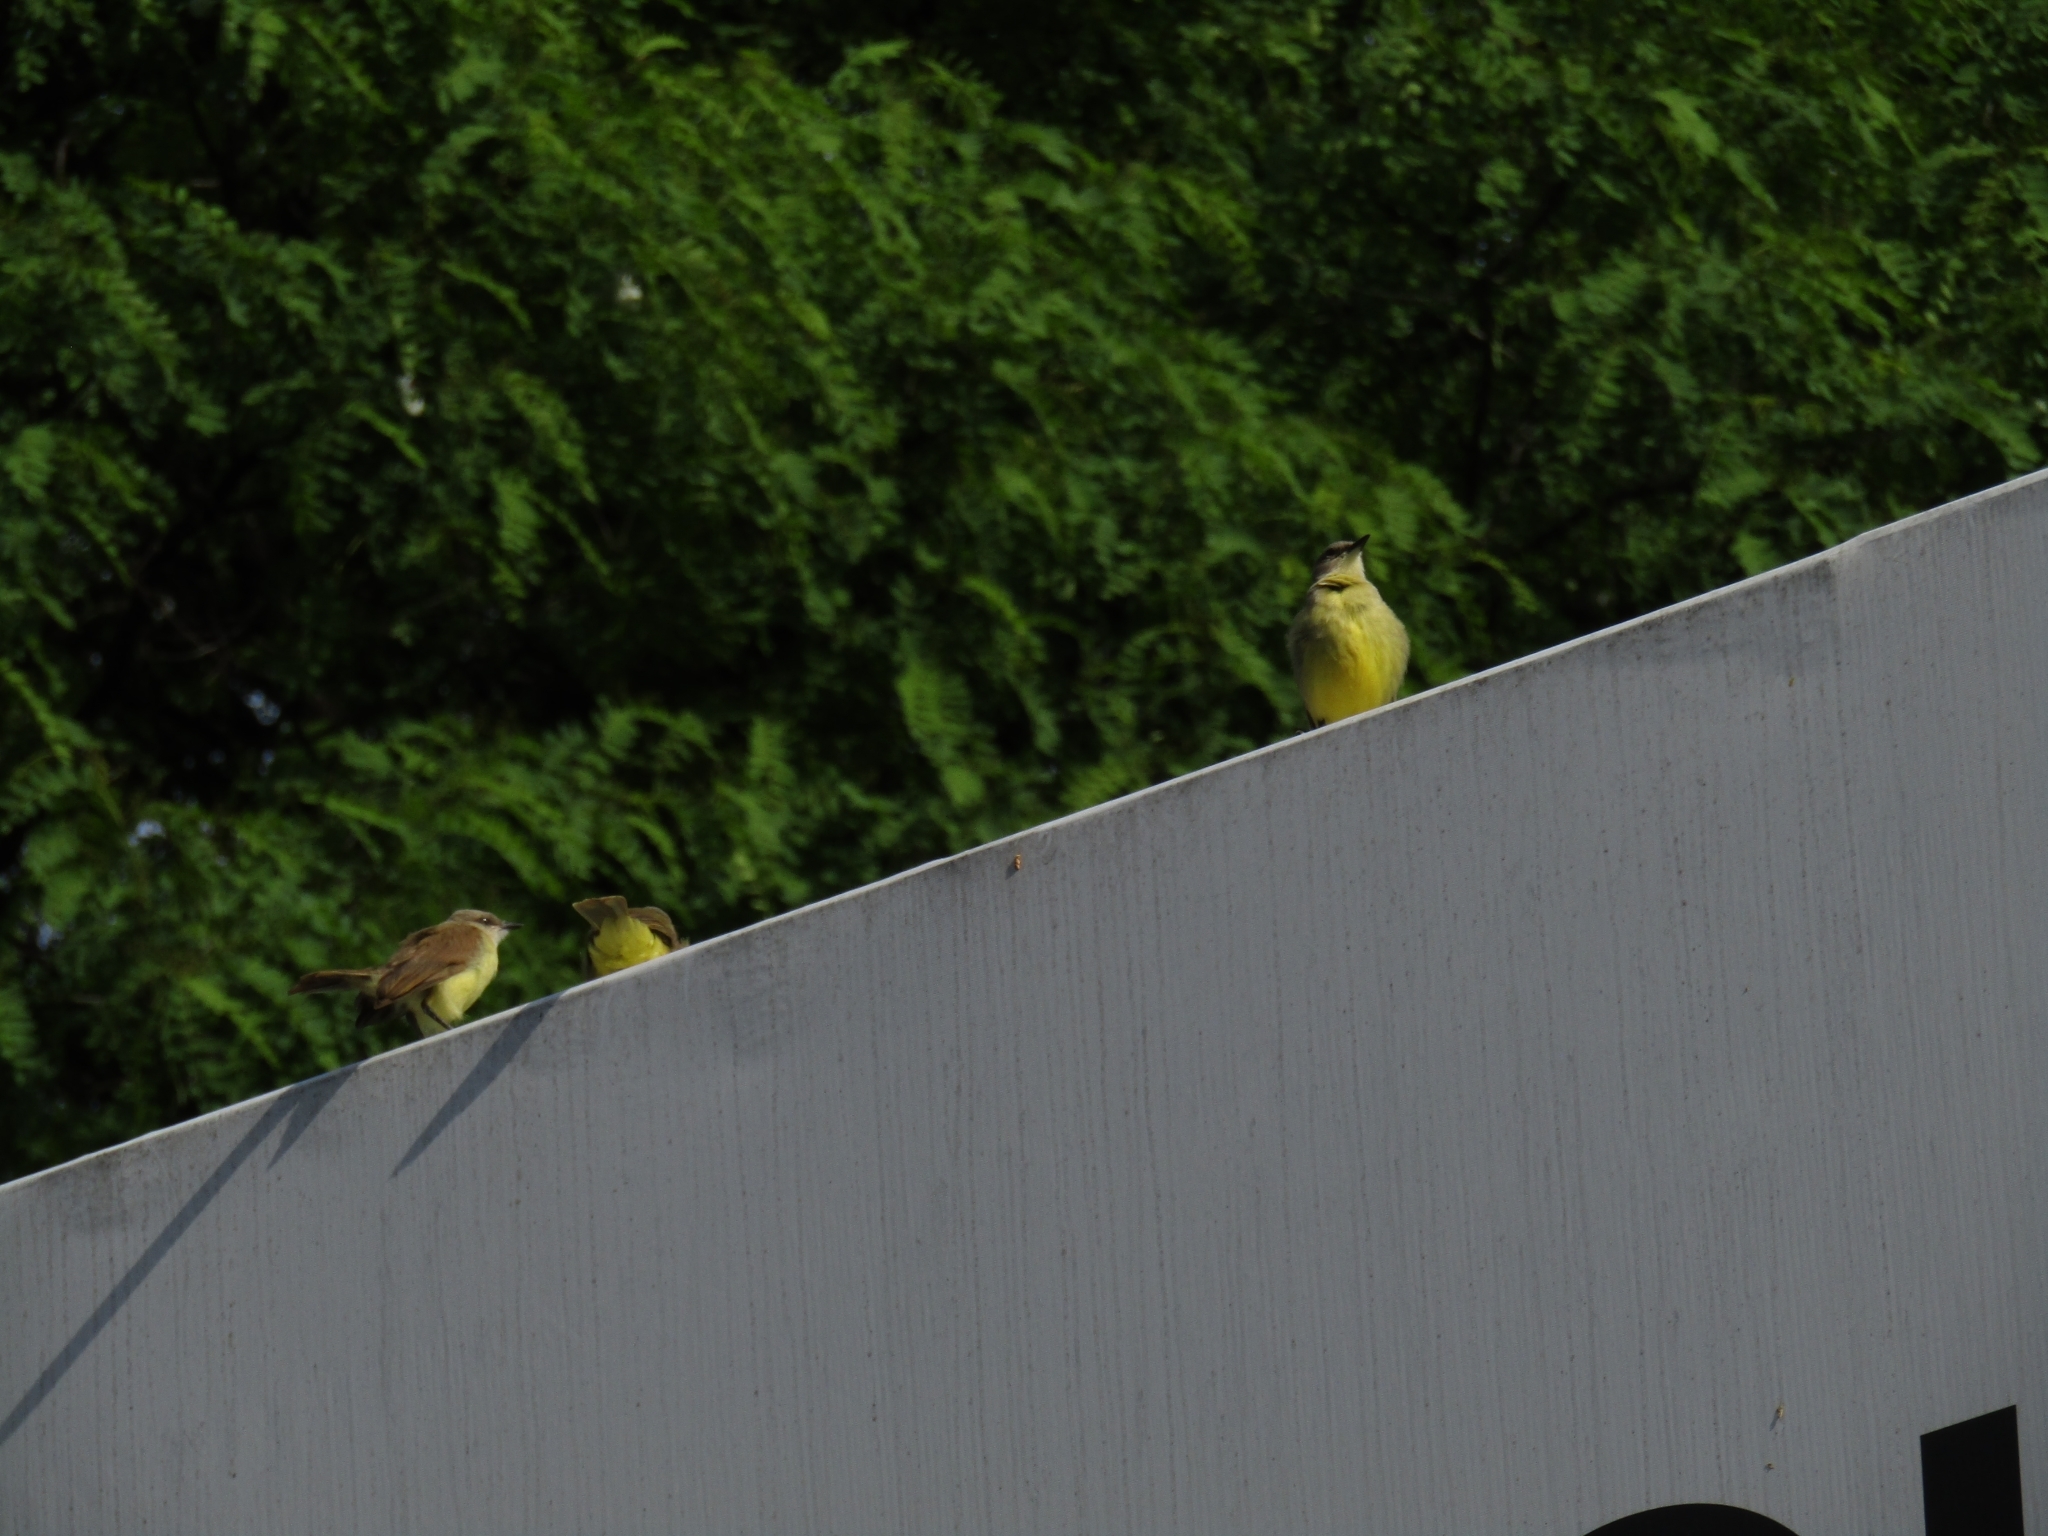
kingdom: Animalia
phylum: Chordata
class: Aves
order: Passeriformes
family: Tyrannidae
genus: Machetornis
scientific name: Machetornis rixosa
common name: Cattle tyrant
